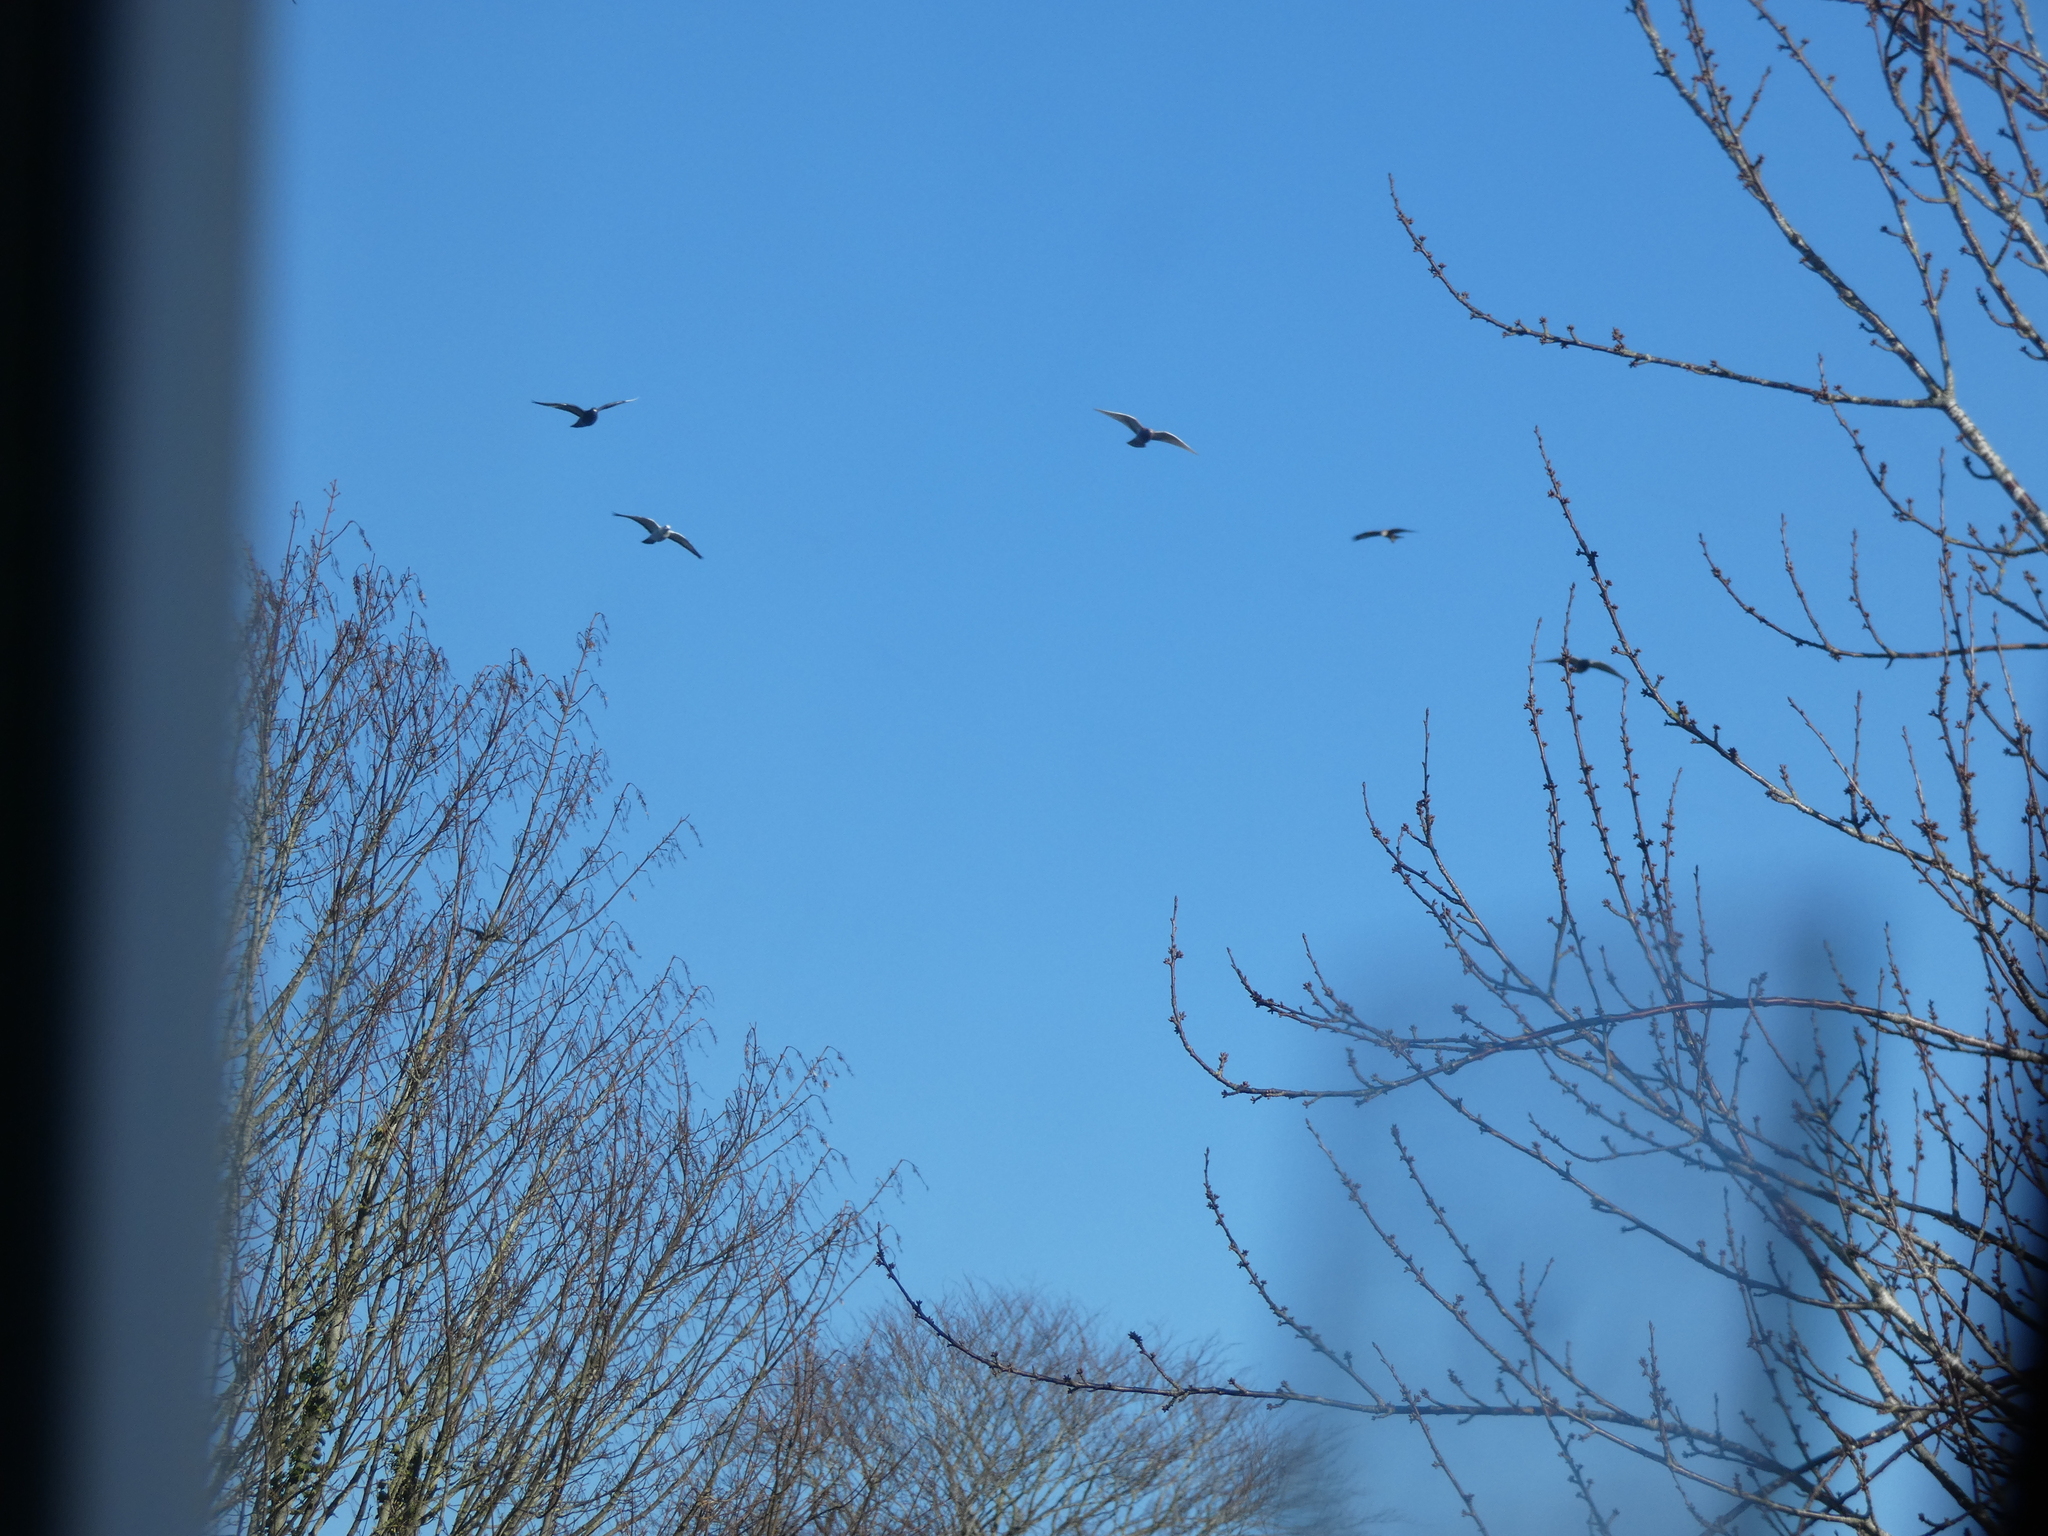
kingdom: Animalia
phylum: Chordata
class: Aves
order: Columbiformes
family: Columbidae
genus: Columba
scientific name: Columba livia
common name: Rock pigeon
